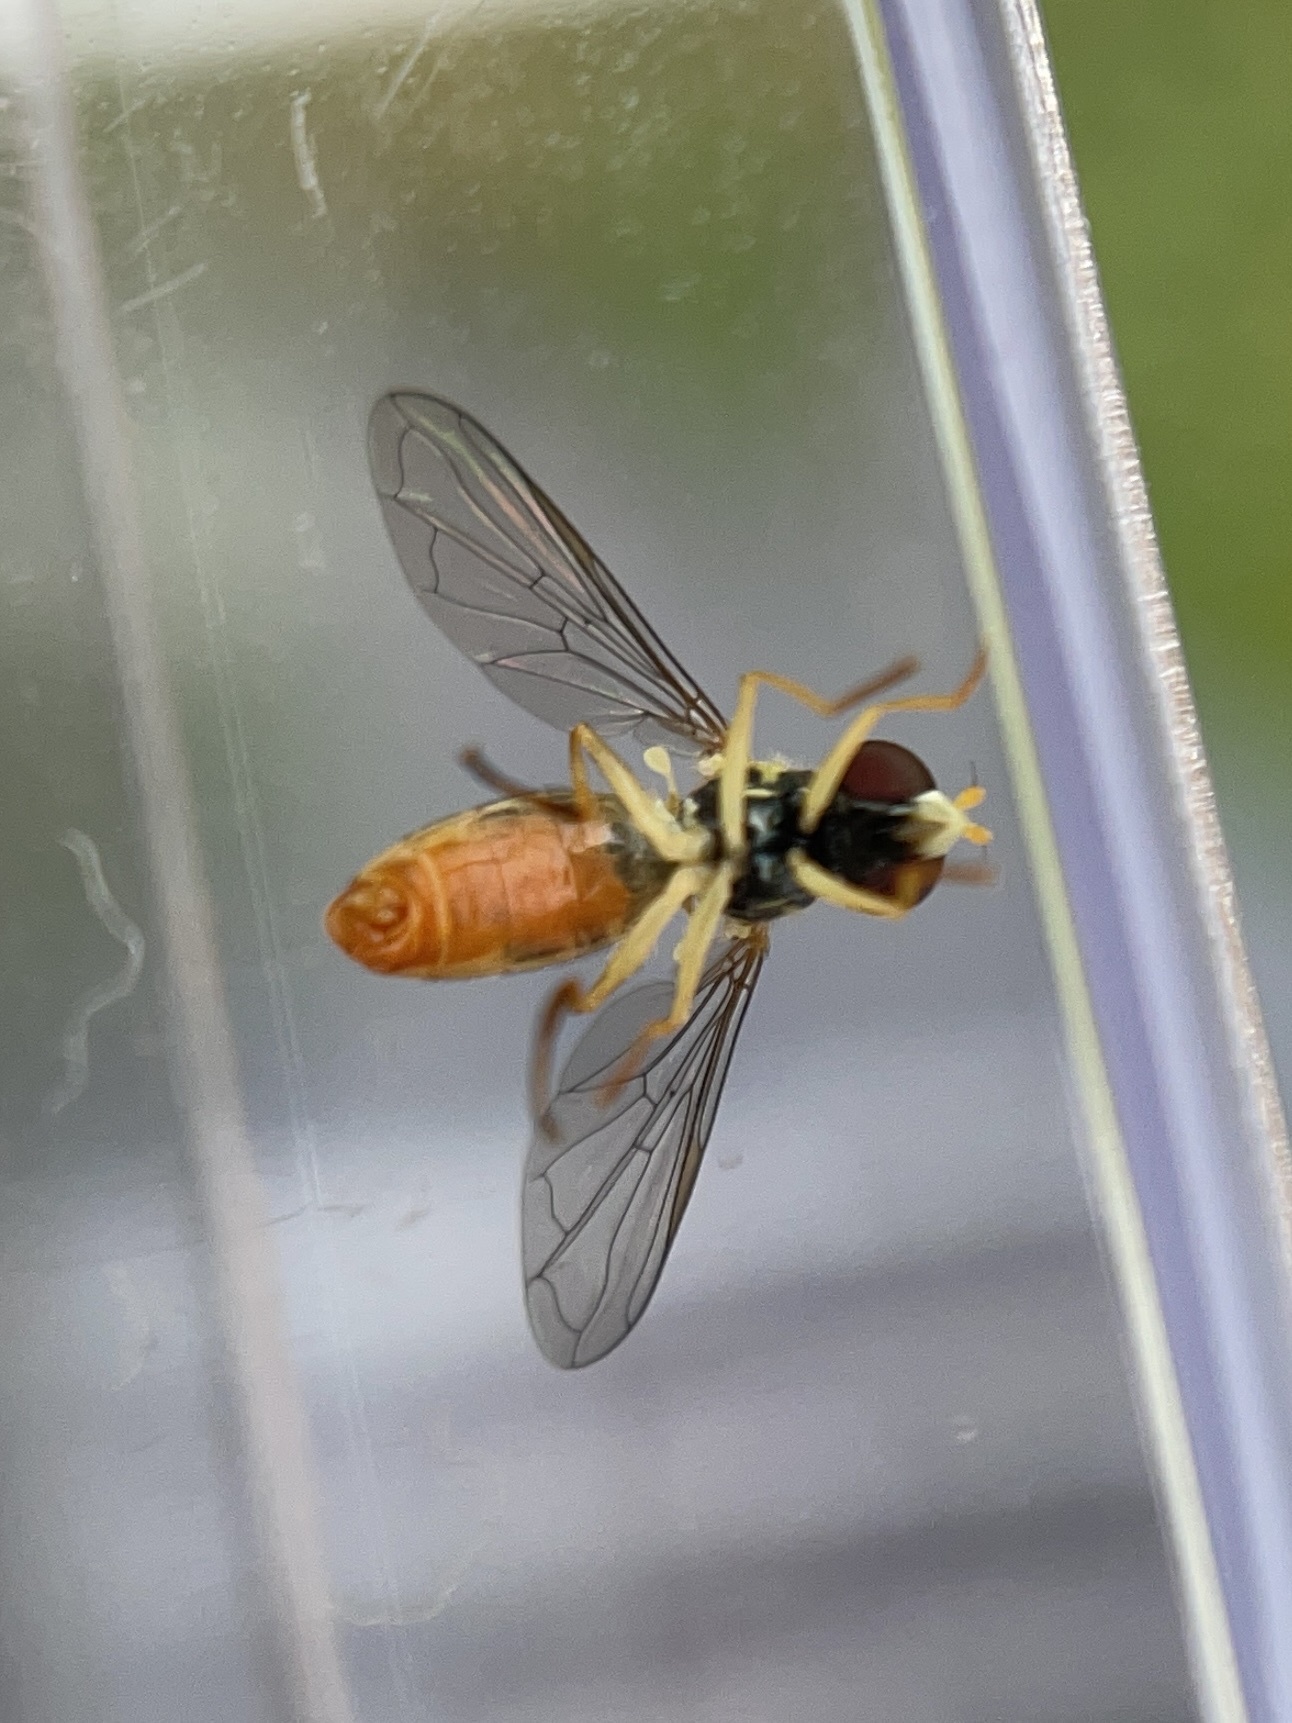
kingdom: Animalia
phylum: Arthropoda
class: Insecta
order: Diptera
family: Syrphidae
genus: Toxomerus
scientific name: Toxomerus marginatus
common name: Syrphid fly
